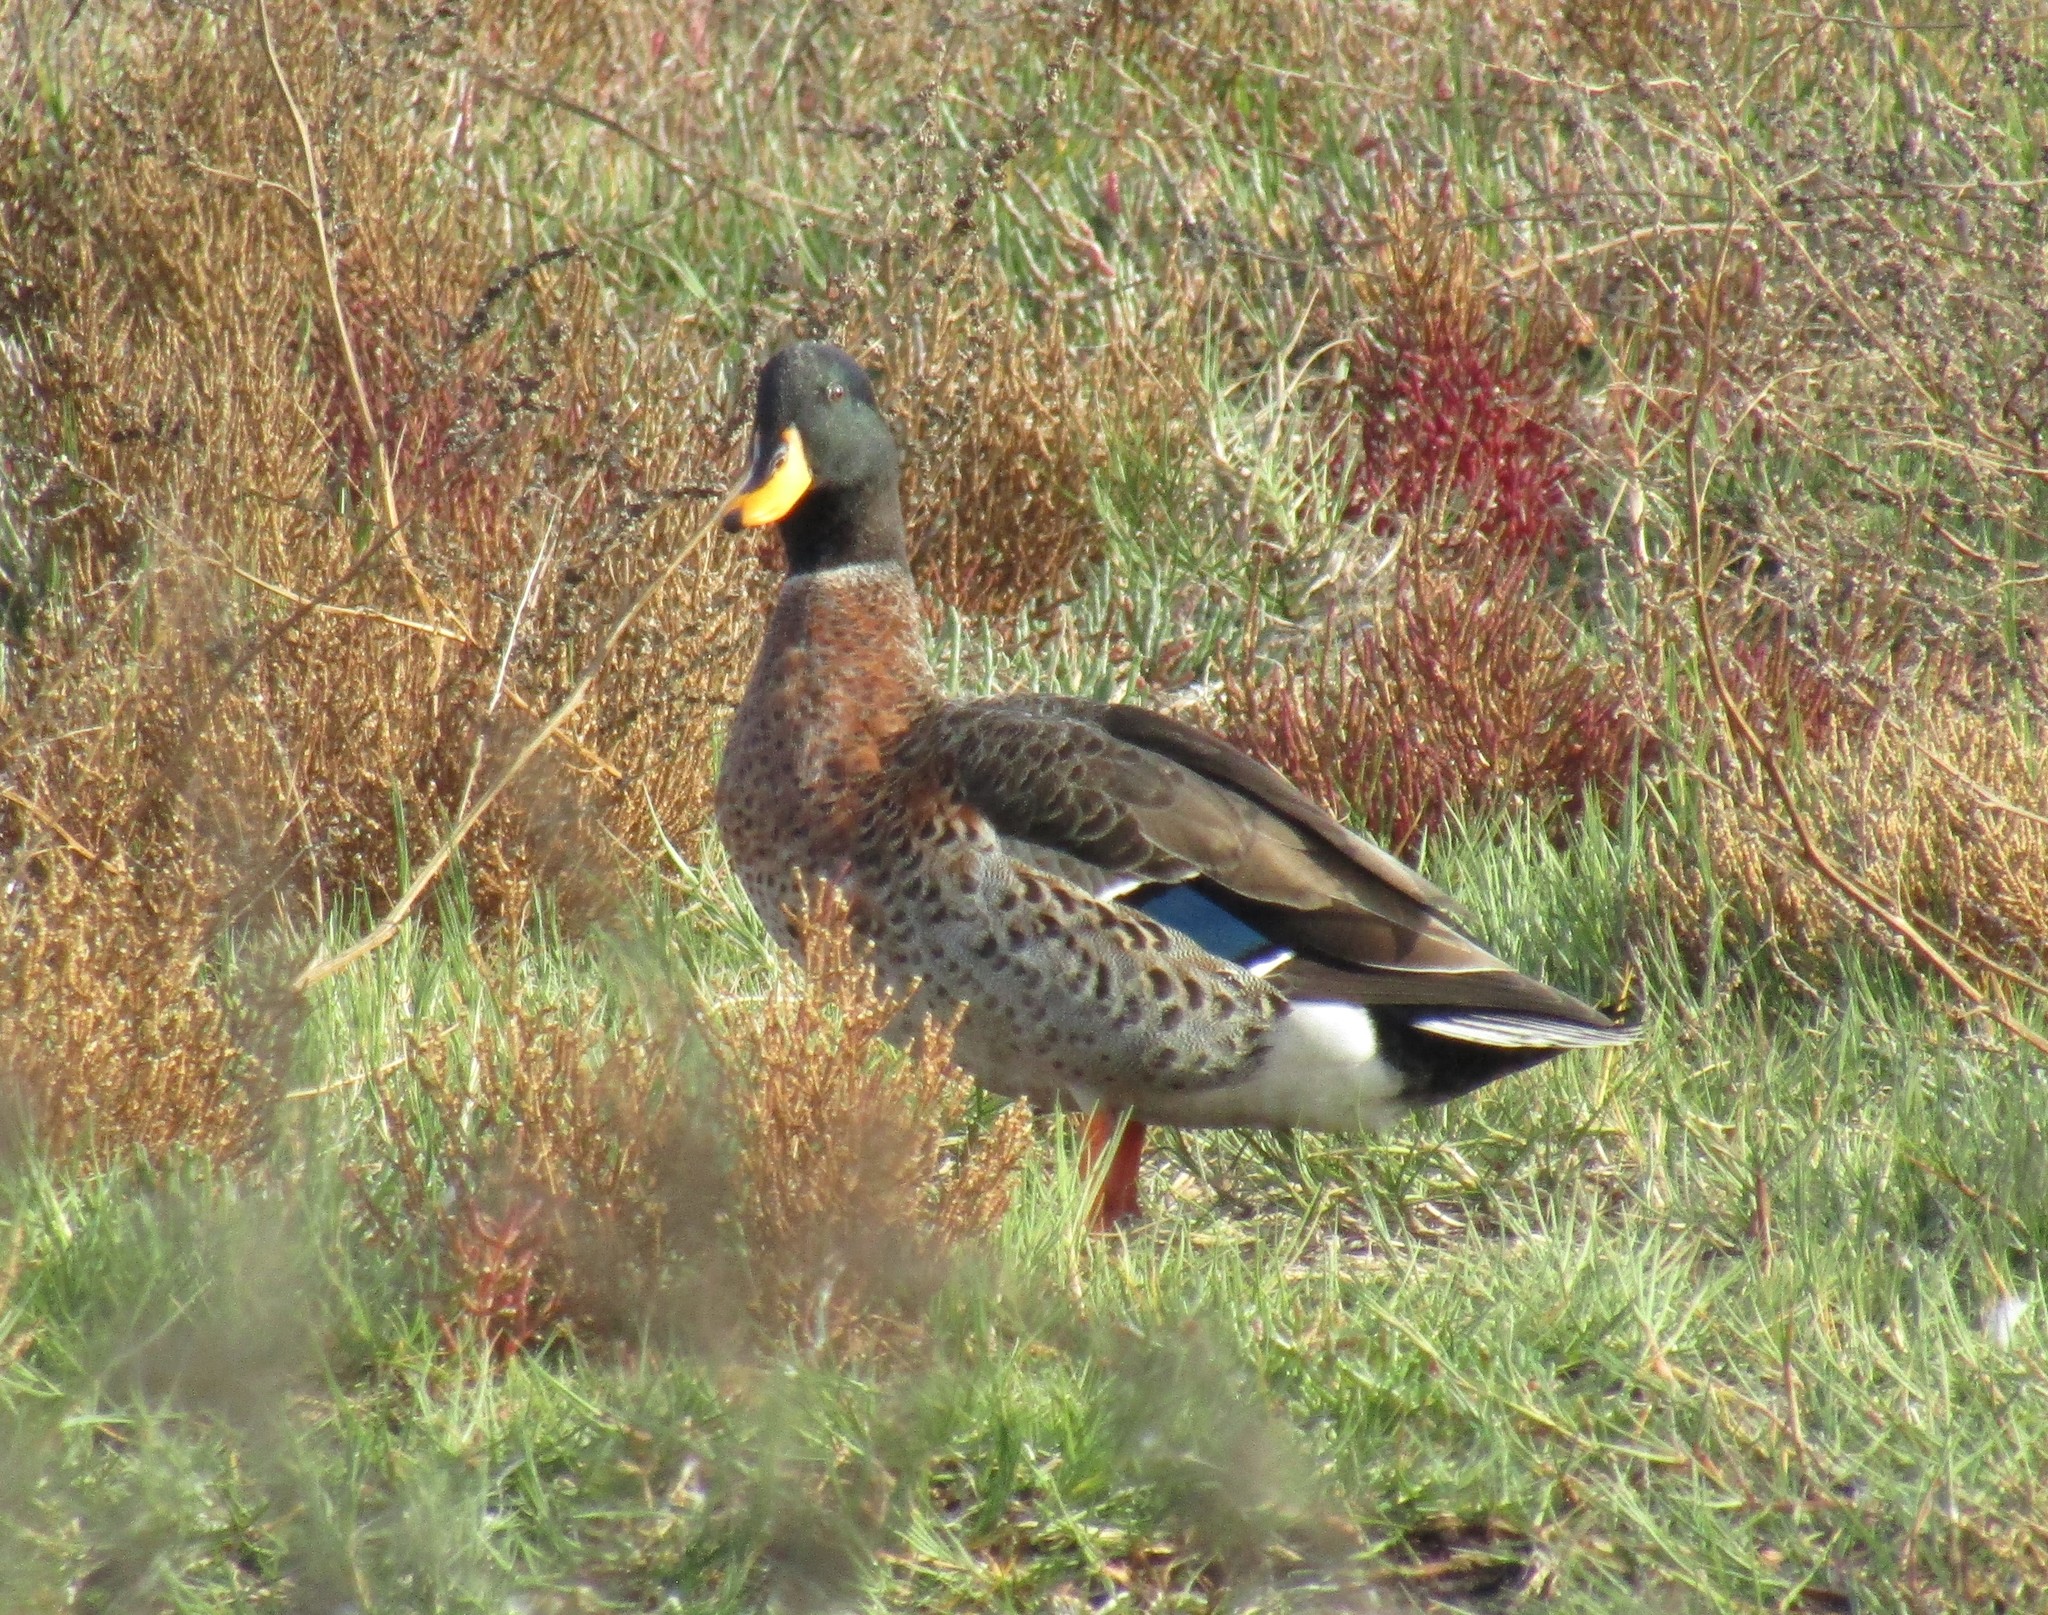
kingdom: Animalia
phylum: Chordata
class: Aves
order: Anseriformes
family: Anatidae
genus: Anas
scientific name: Anas
